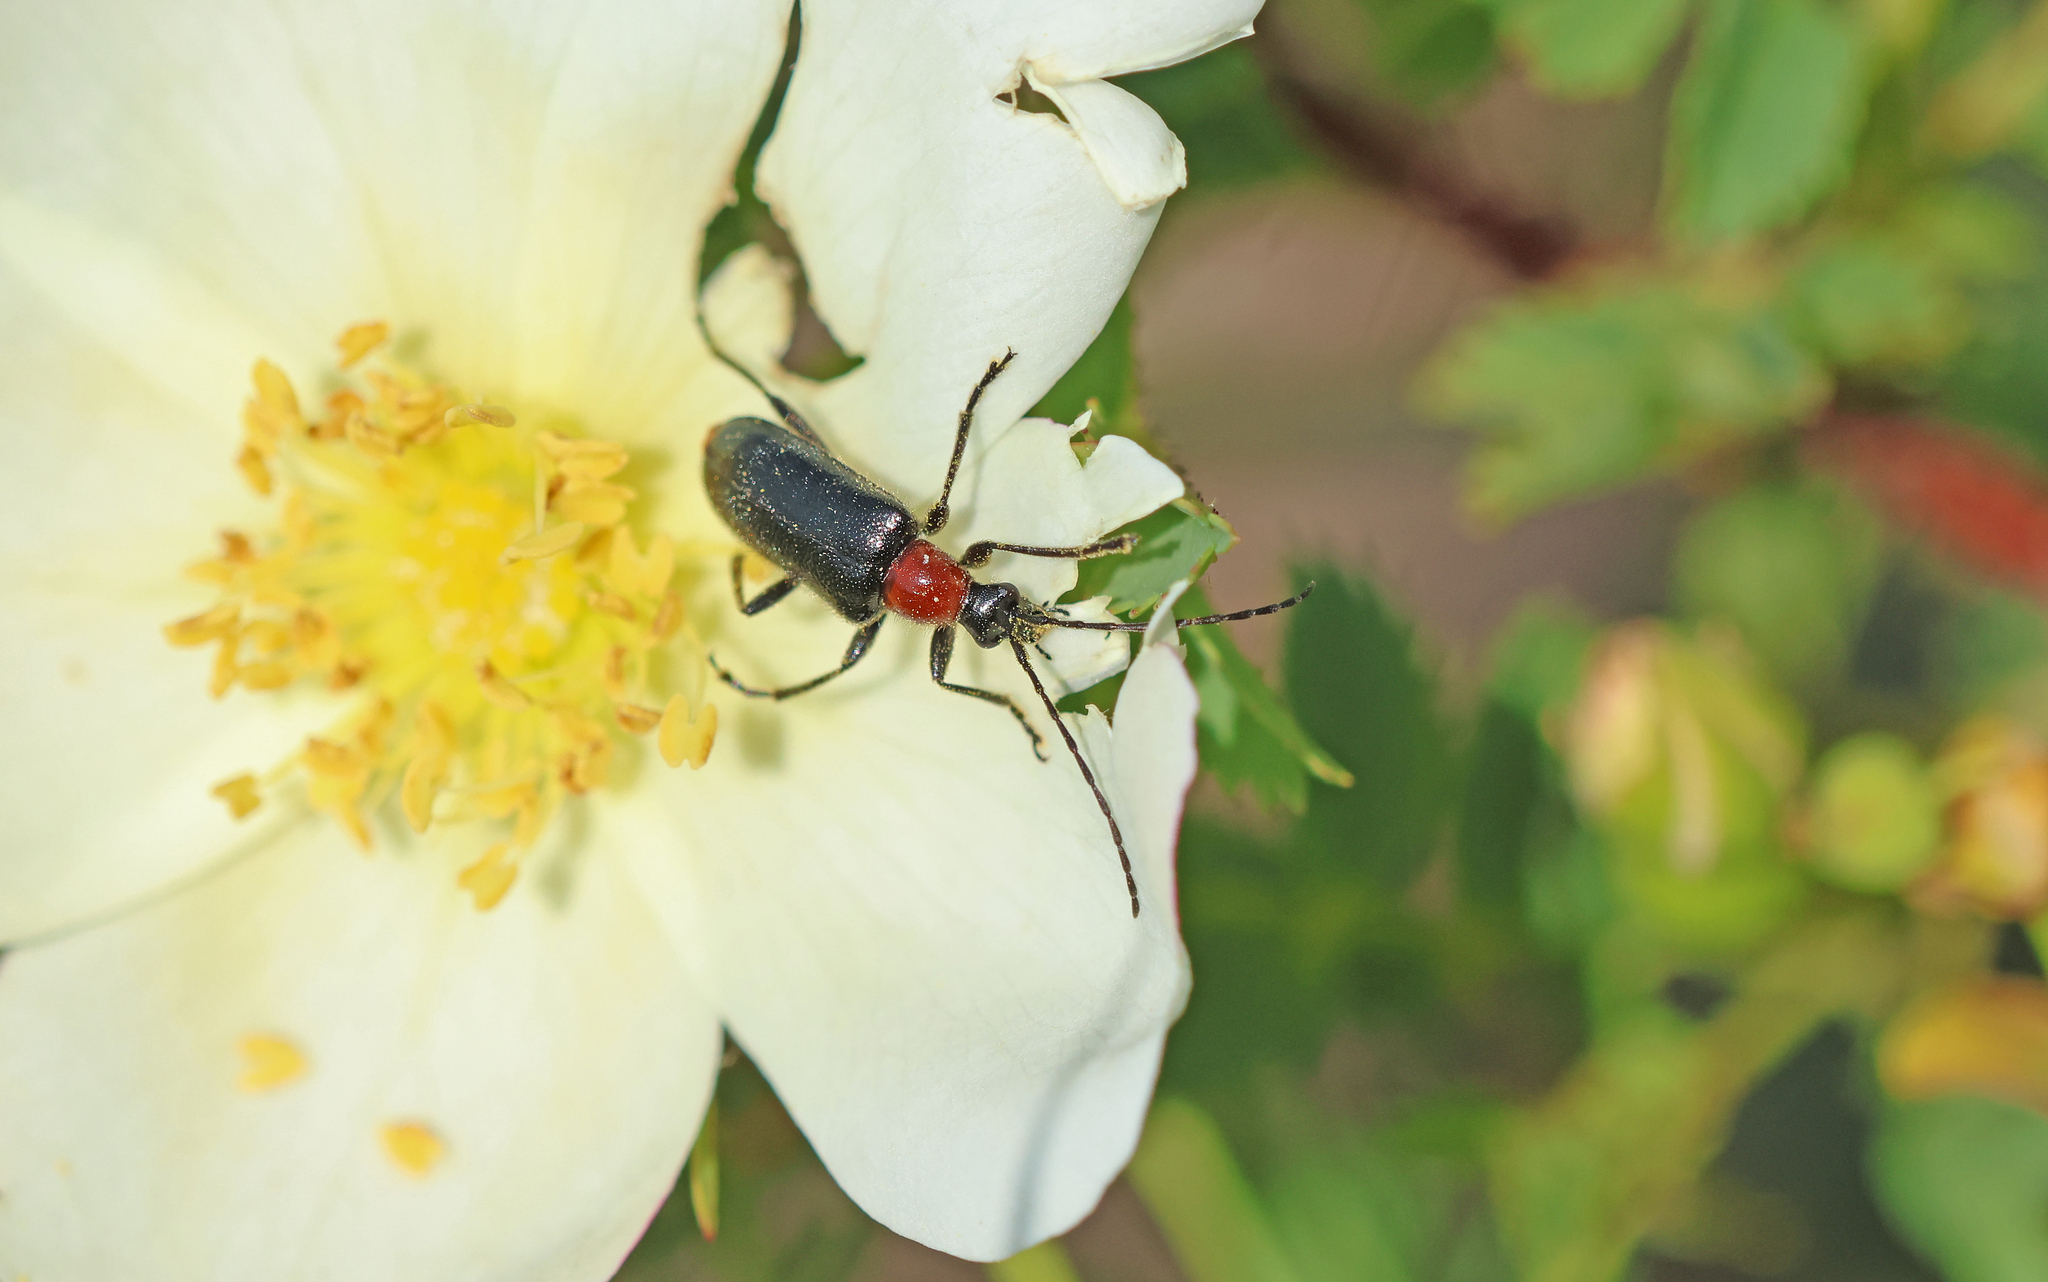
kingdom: Animalia
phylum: Arthropoda
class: Insecta
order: Coleoptera
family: Cerambycidae
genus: Dinoptera
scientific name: Dinoptera collaris
